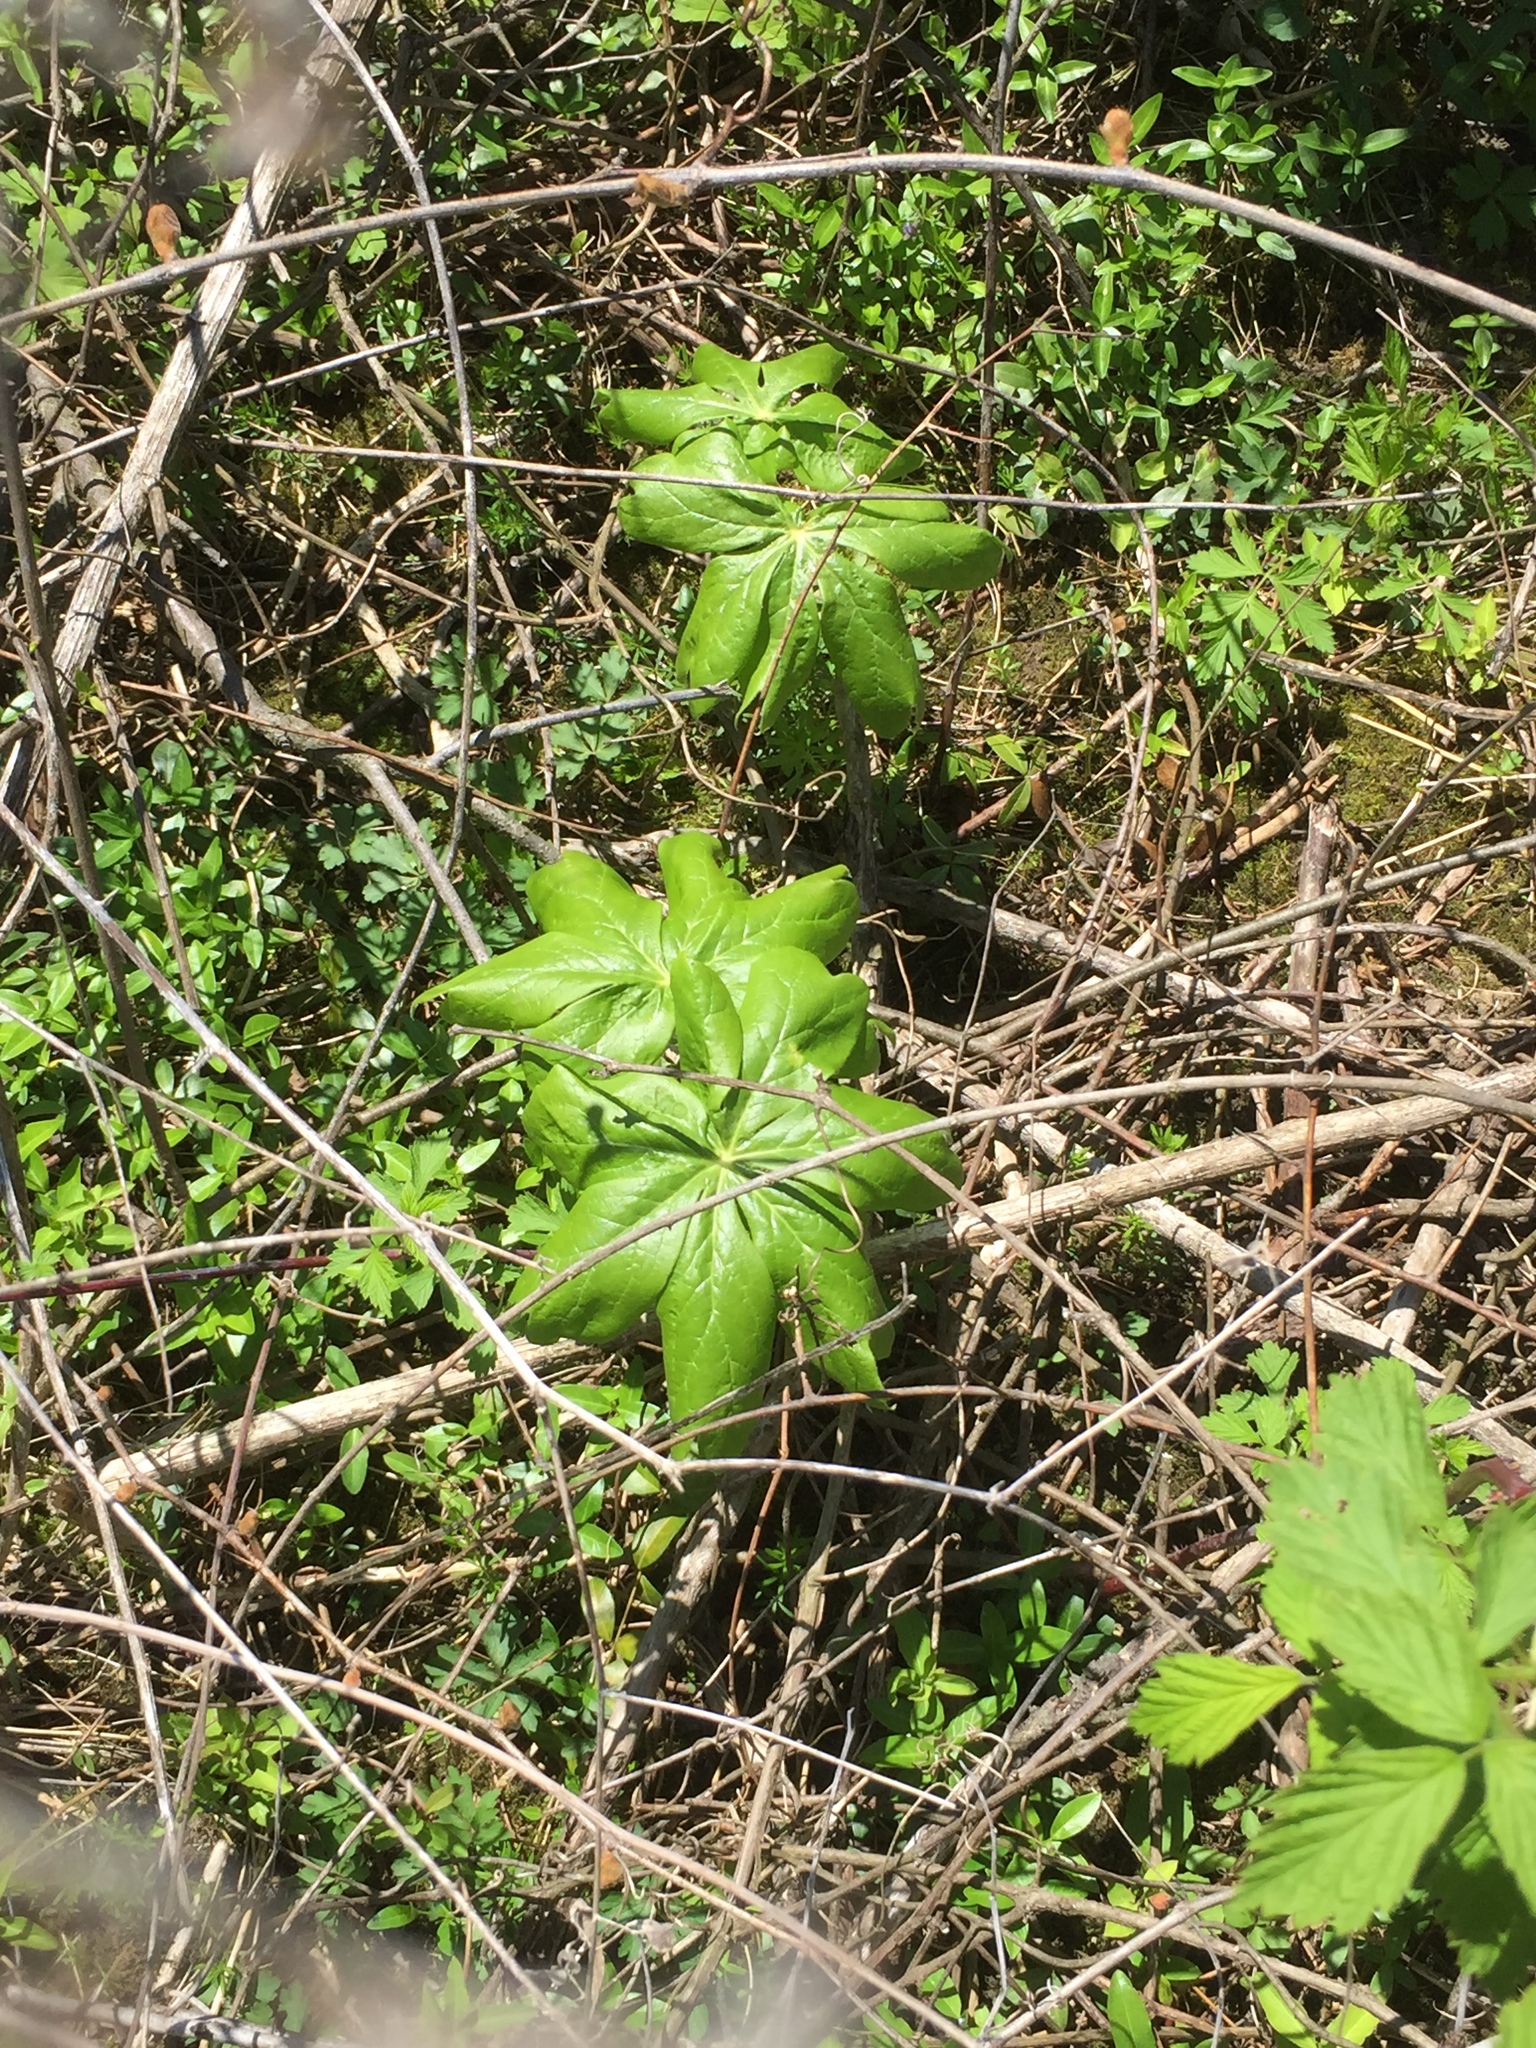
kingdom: Plantae
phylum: Tracheophyta
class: Magnoliopsida
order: Ranunculales
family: Berberidaceae
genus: Podophyllum
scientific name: Podophyllum peltatum
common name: Wild mandrake
